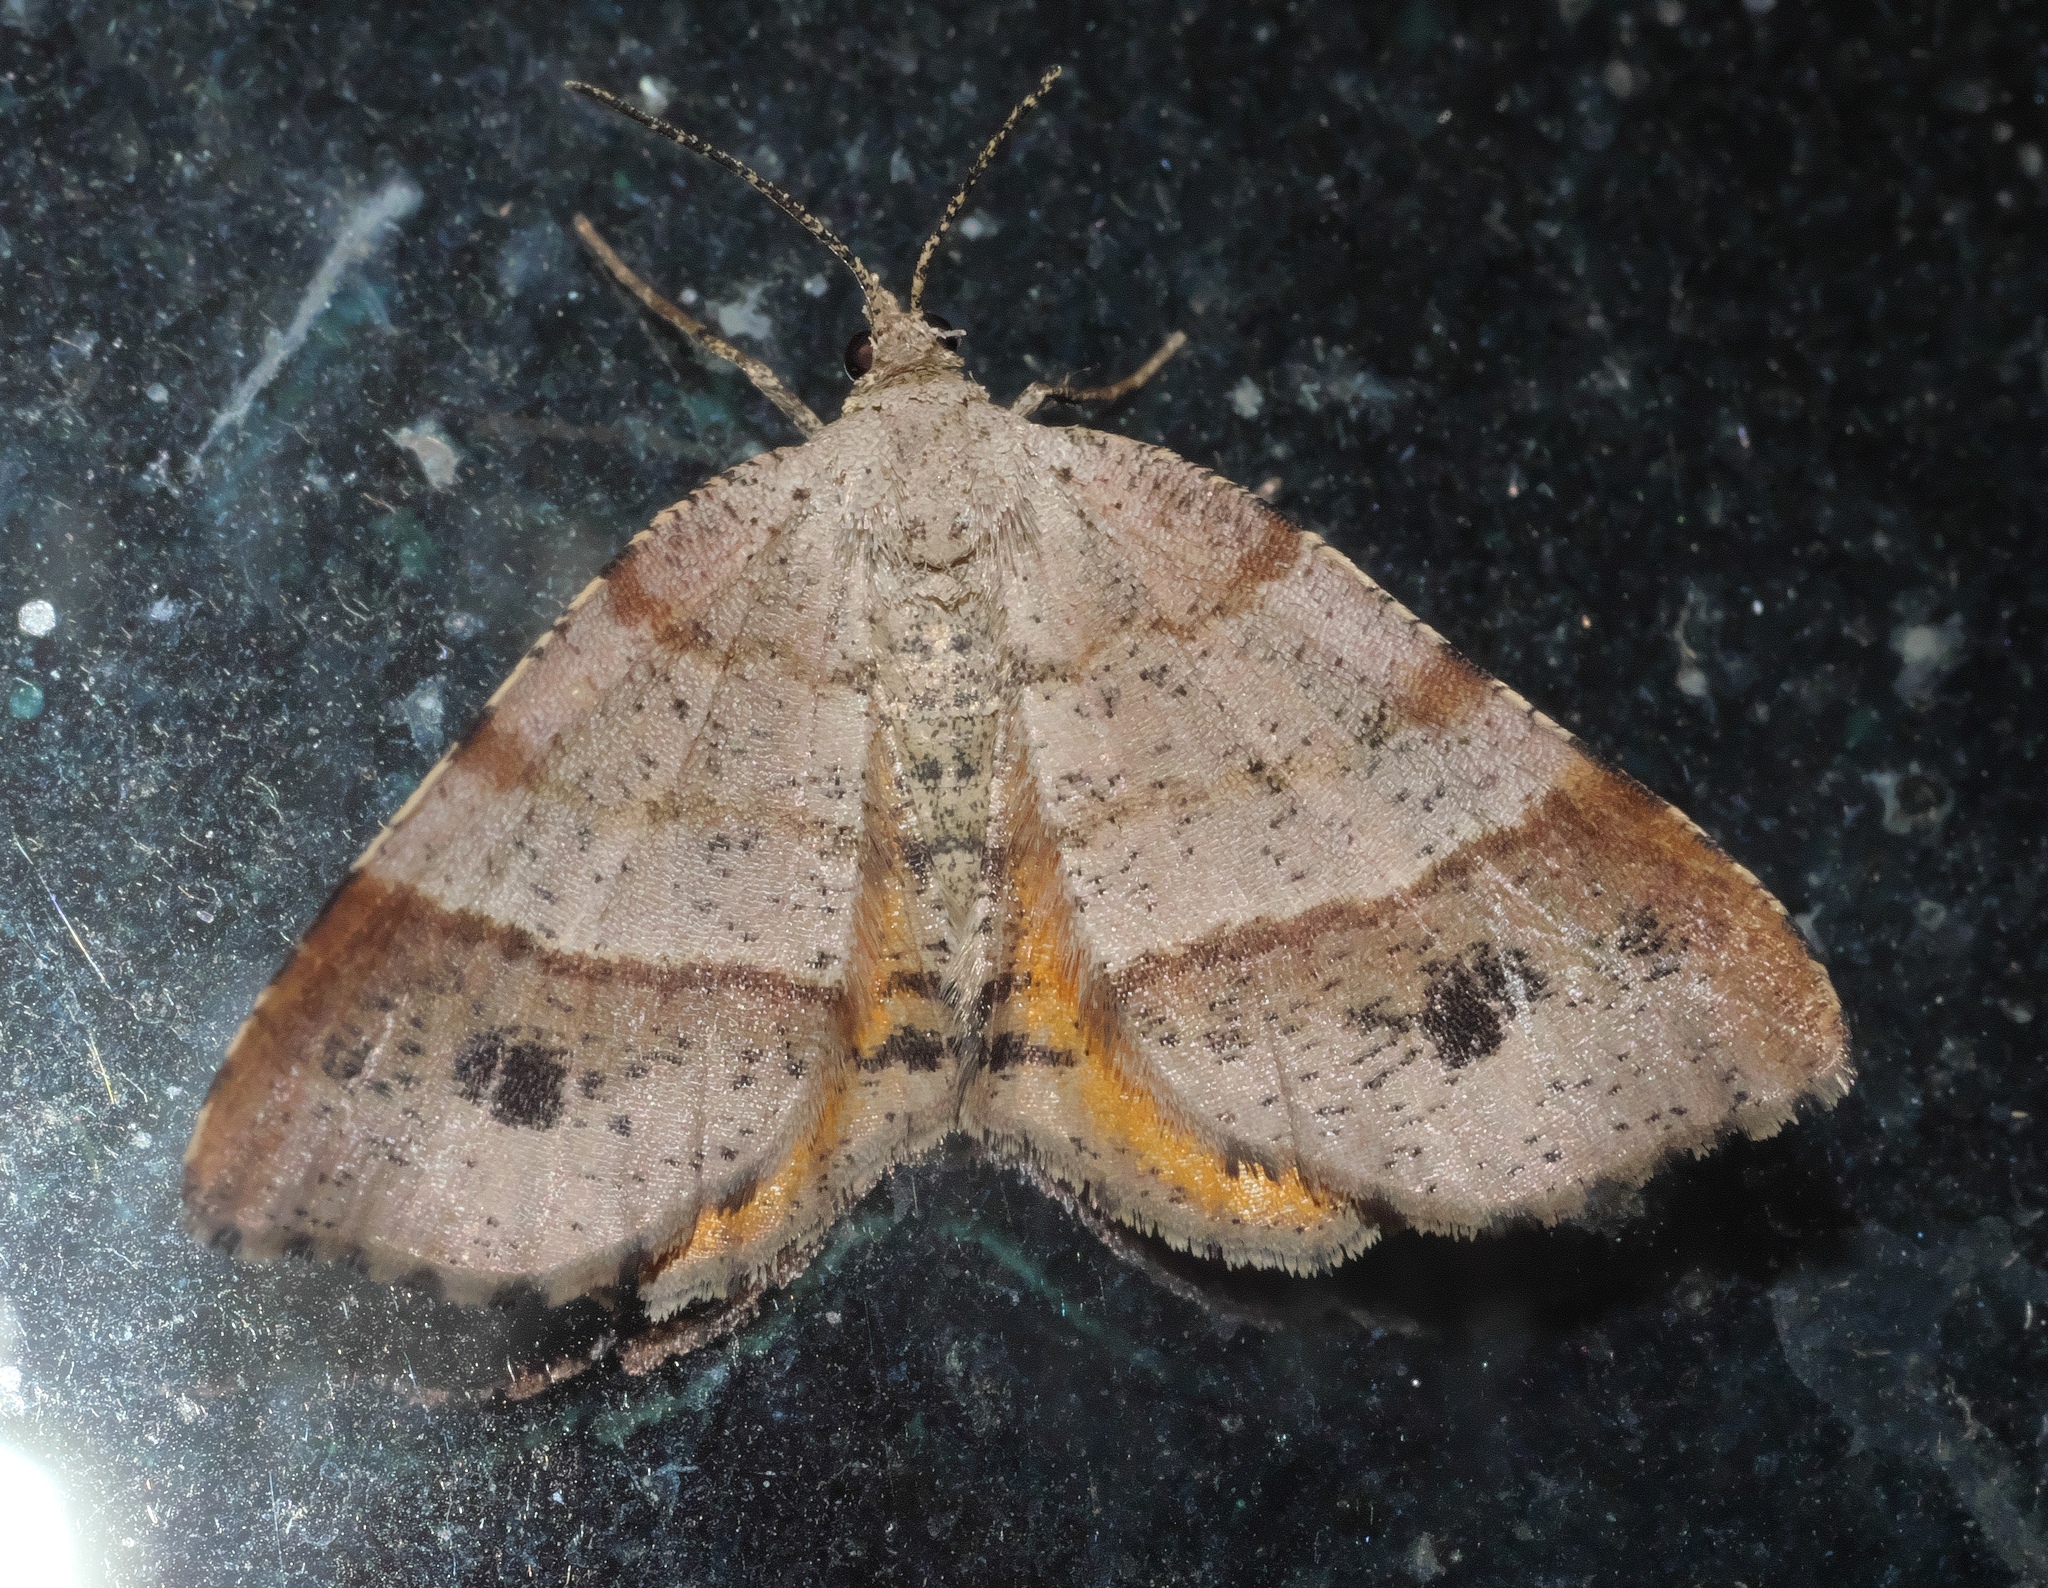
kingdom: Animalia
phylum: Arthropoda
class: Insecta
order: Lepidoptera
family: Geometridae
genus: Mellilla
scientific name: Mellilla xanthometata
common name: Orange wing moth
